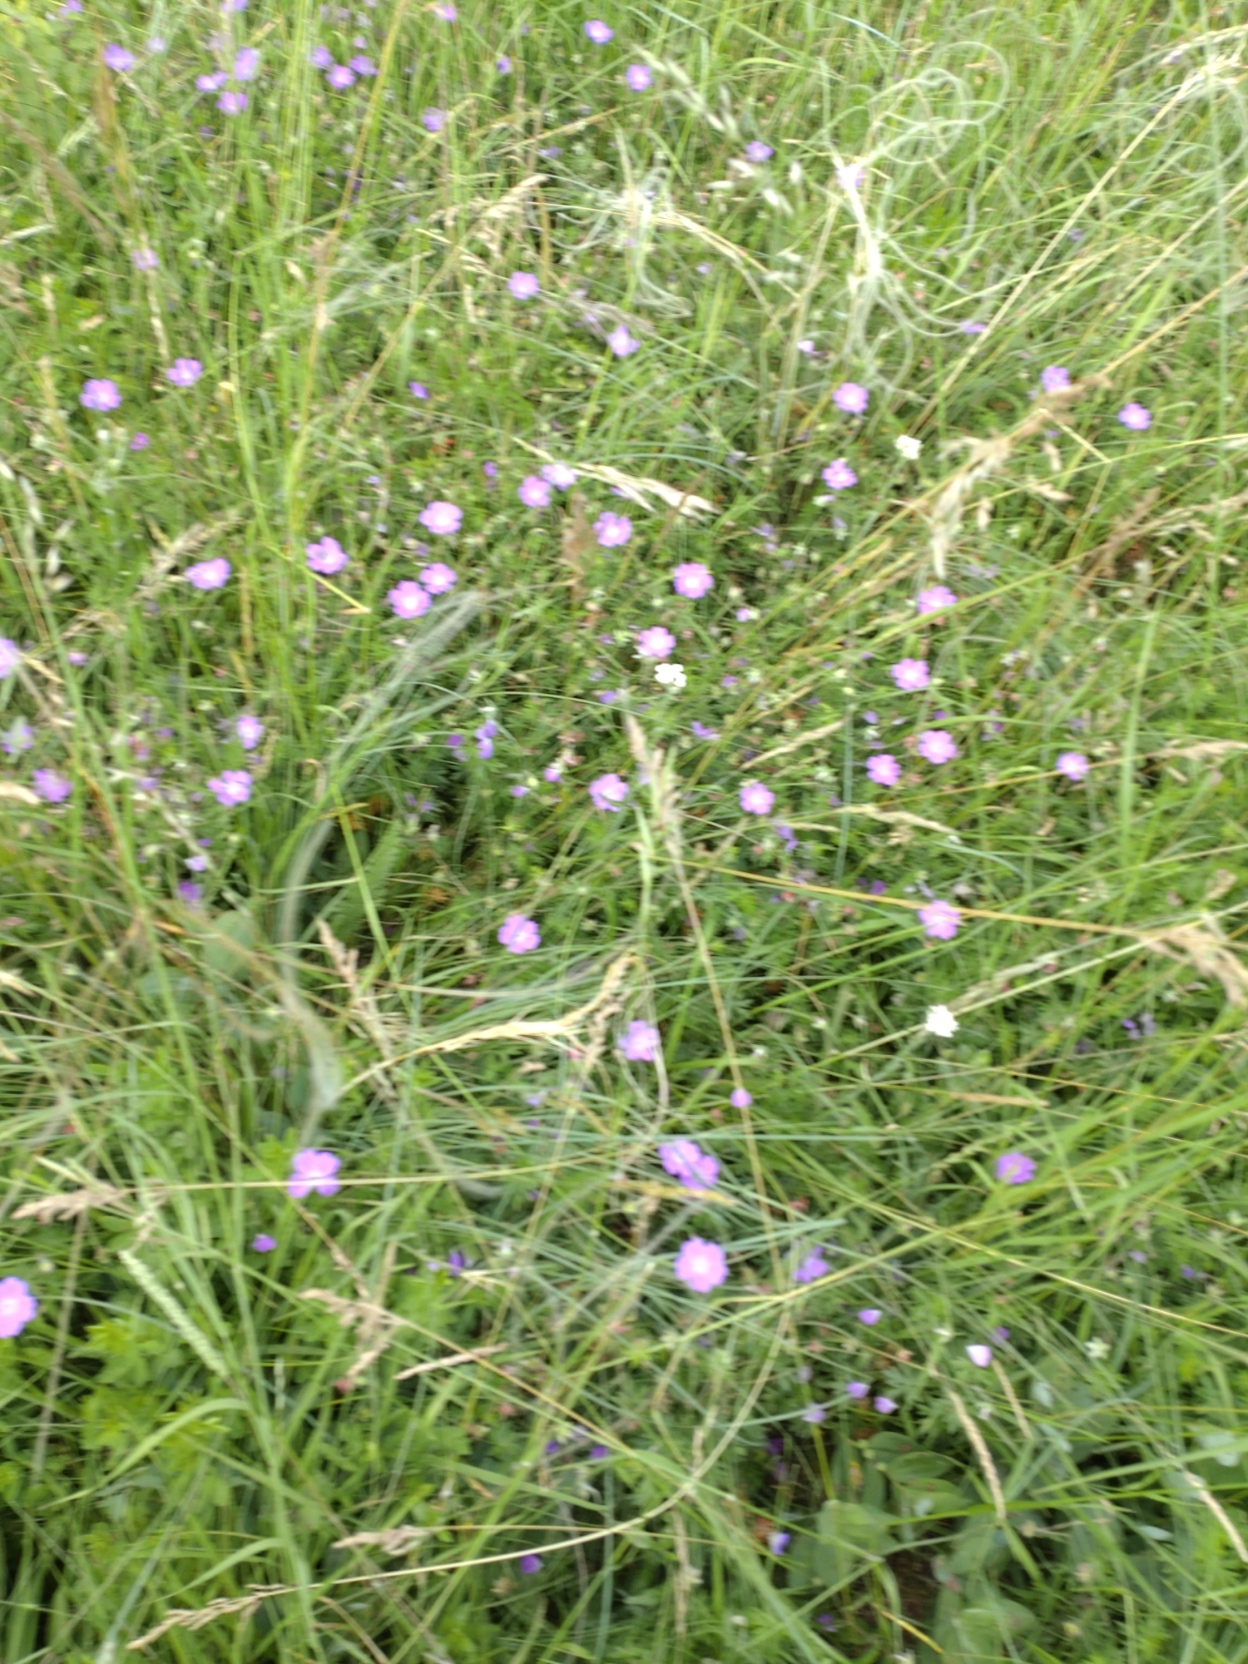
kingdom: Plantae
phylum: Tracheophyta
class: Magnoliopsida
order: Geraniales
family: Geraniaceae
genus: Geranium
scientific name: Geranium sanguineum
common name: Bloody crane's-bill
